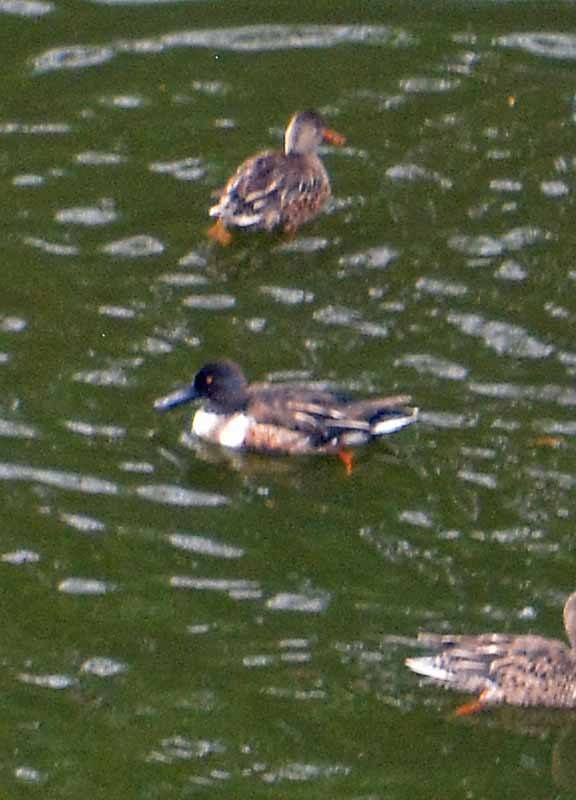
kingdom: Animalia
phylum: Chordata
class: Aves
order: Anseriformes
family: Anatidae
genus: Spatula
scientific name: Spatula clypeata
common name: Northern shoveler
